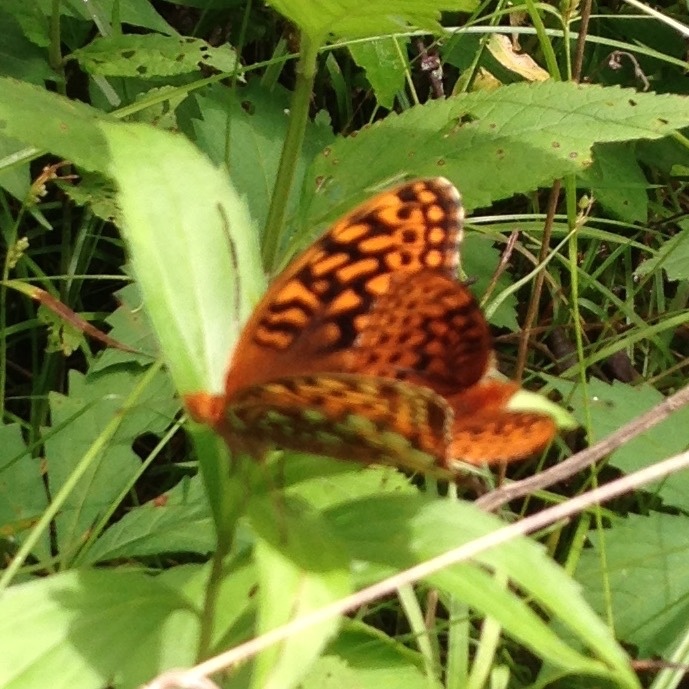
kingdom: Animalia
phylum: Arthropoda
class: Insecta
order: Lepidoptera
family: Nymphalidae
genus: Speyeria
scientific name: Speyeria cybele
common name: Great spangled fritillary
